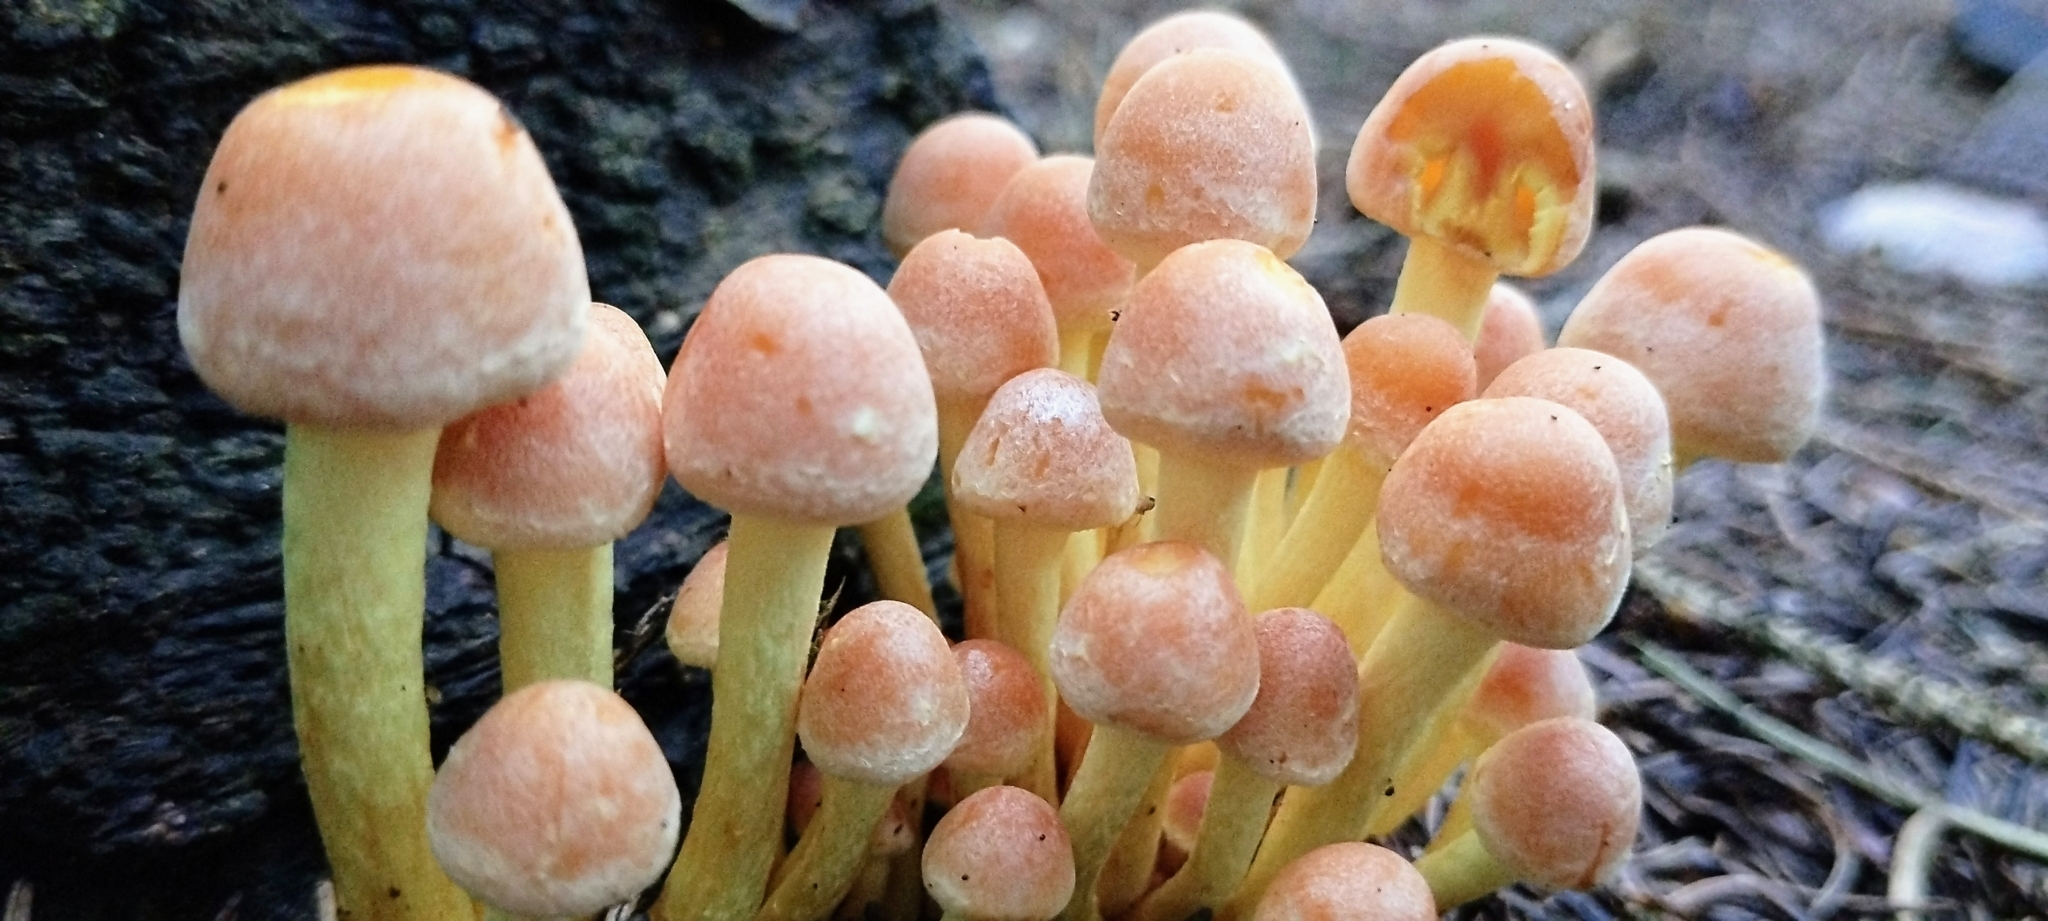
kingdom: Fungi
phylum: Basidiomycota
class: Agaricomycetes
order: Agaricales
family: Strophariaceae
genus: Hypholoma
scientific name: Hypholoma fasciculare
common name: Sulphur tuft
